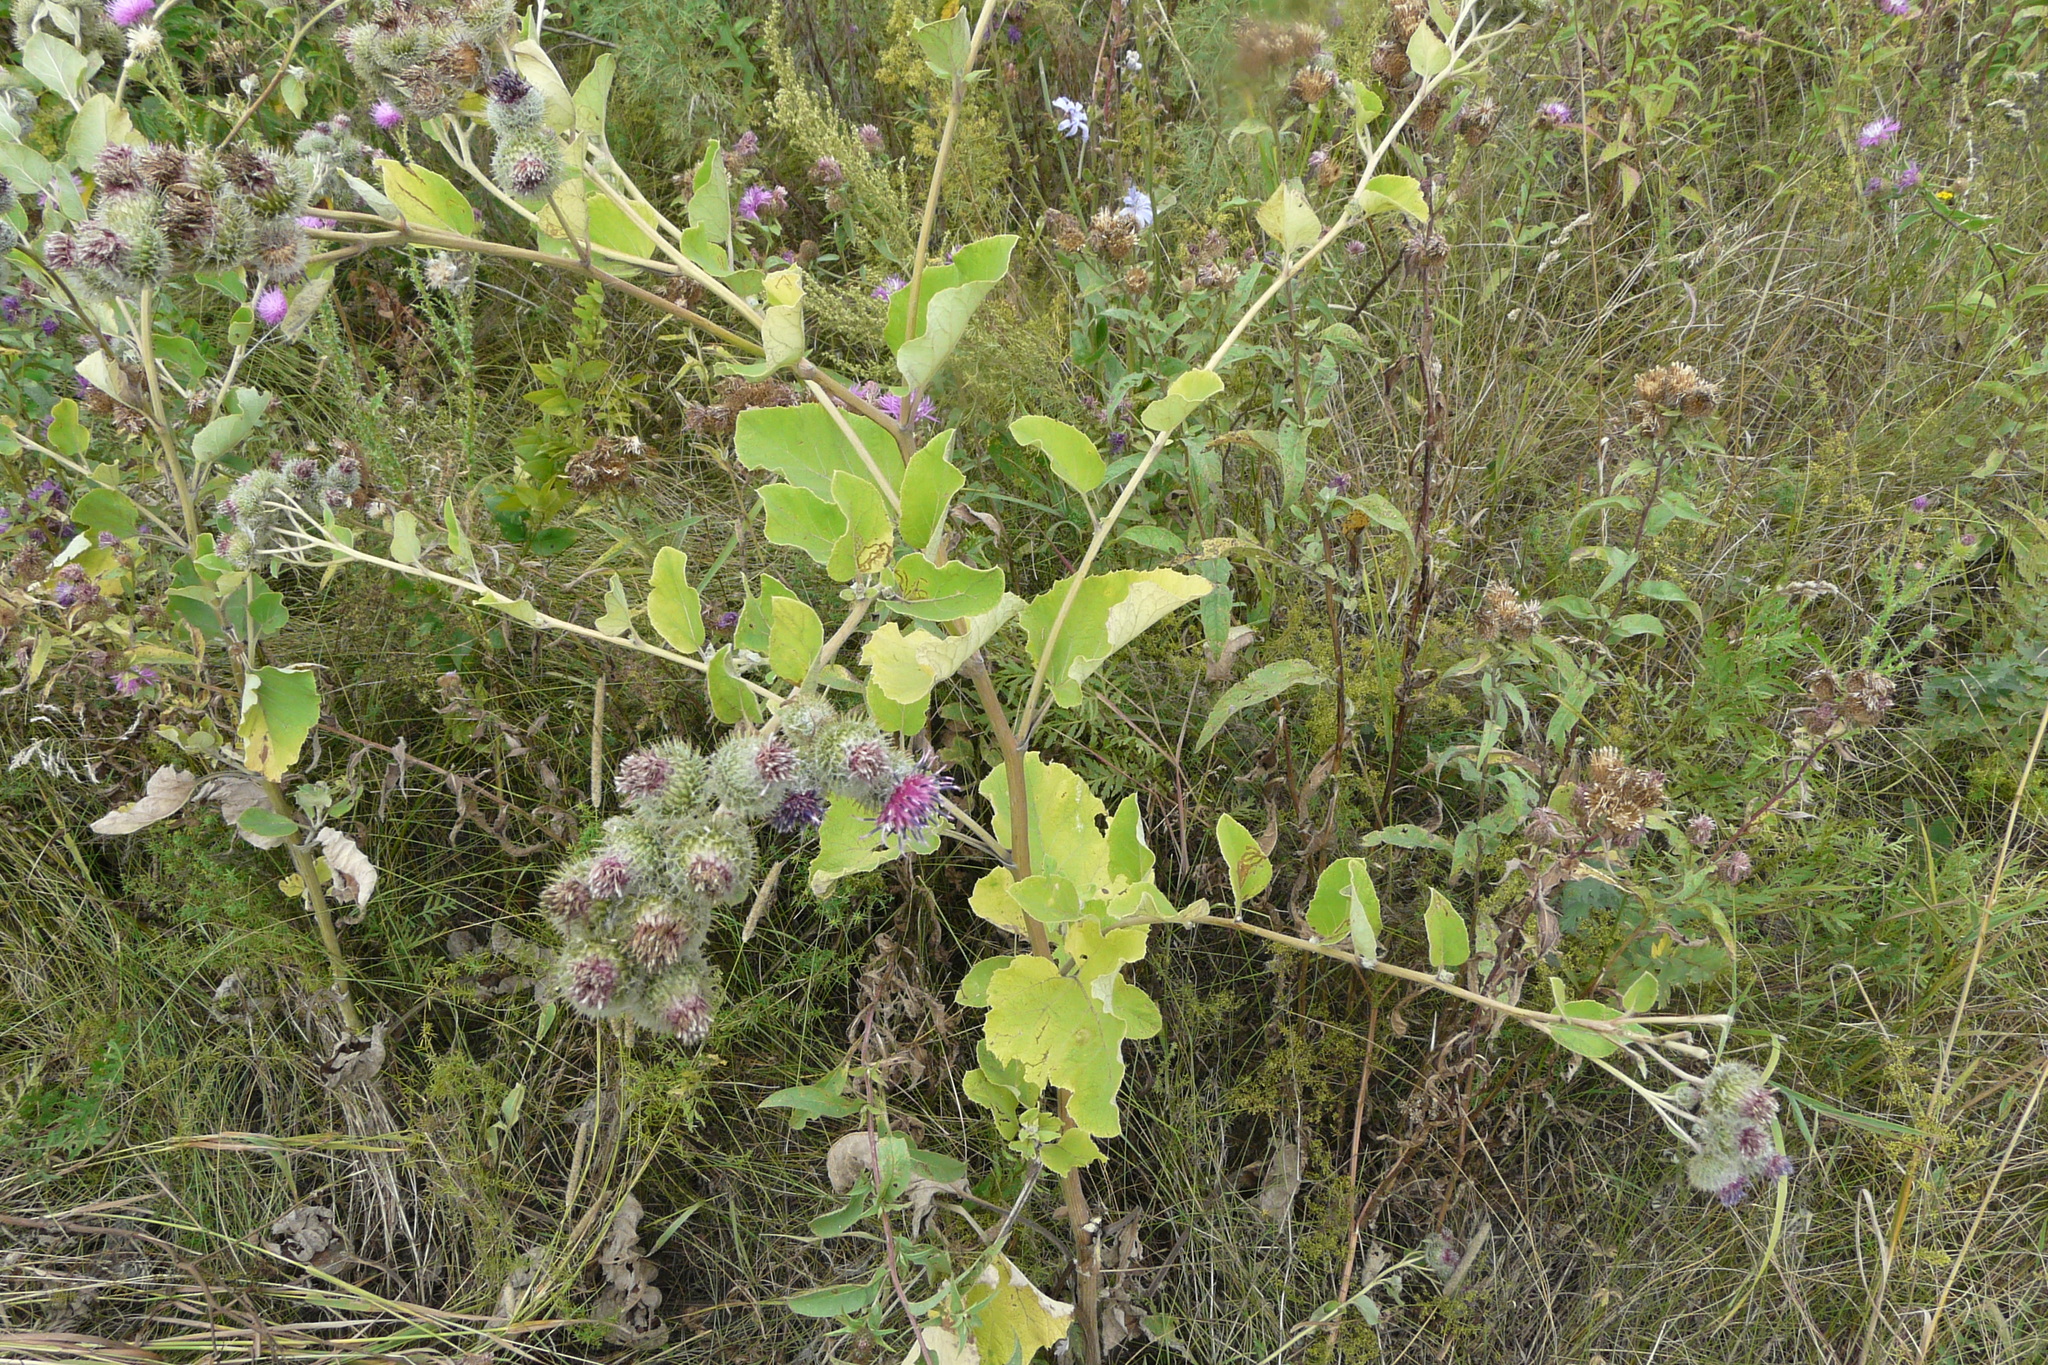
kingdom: Plantae
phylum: Tracheophyta
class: Magnoliopsida
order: Asterales
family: Asteraceae
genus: Arctium
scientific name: Arctium tomentosum
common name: Woolly burdock
